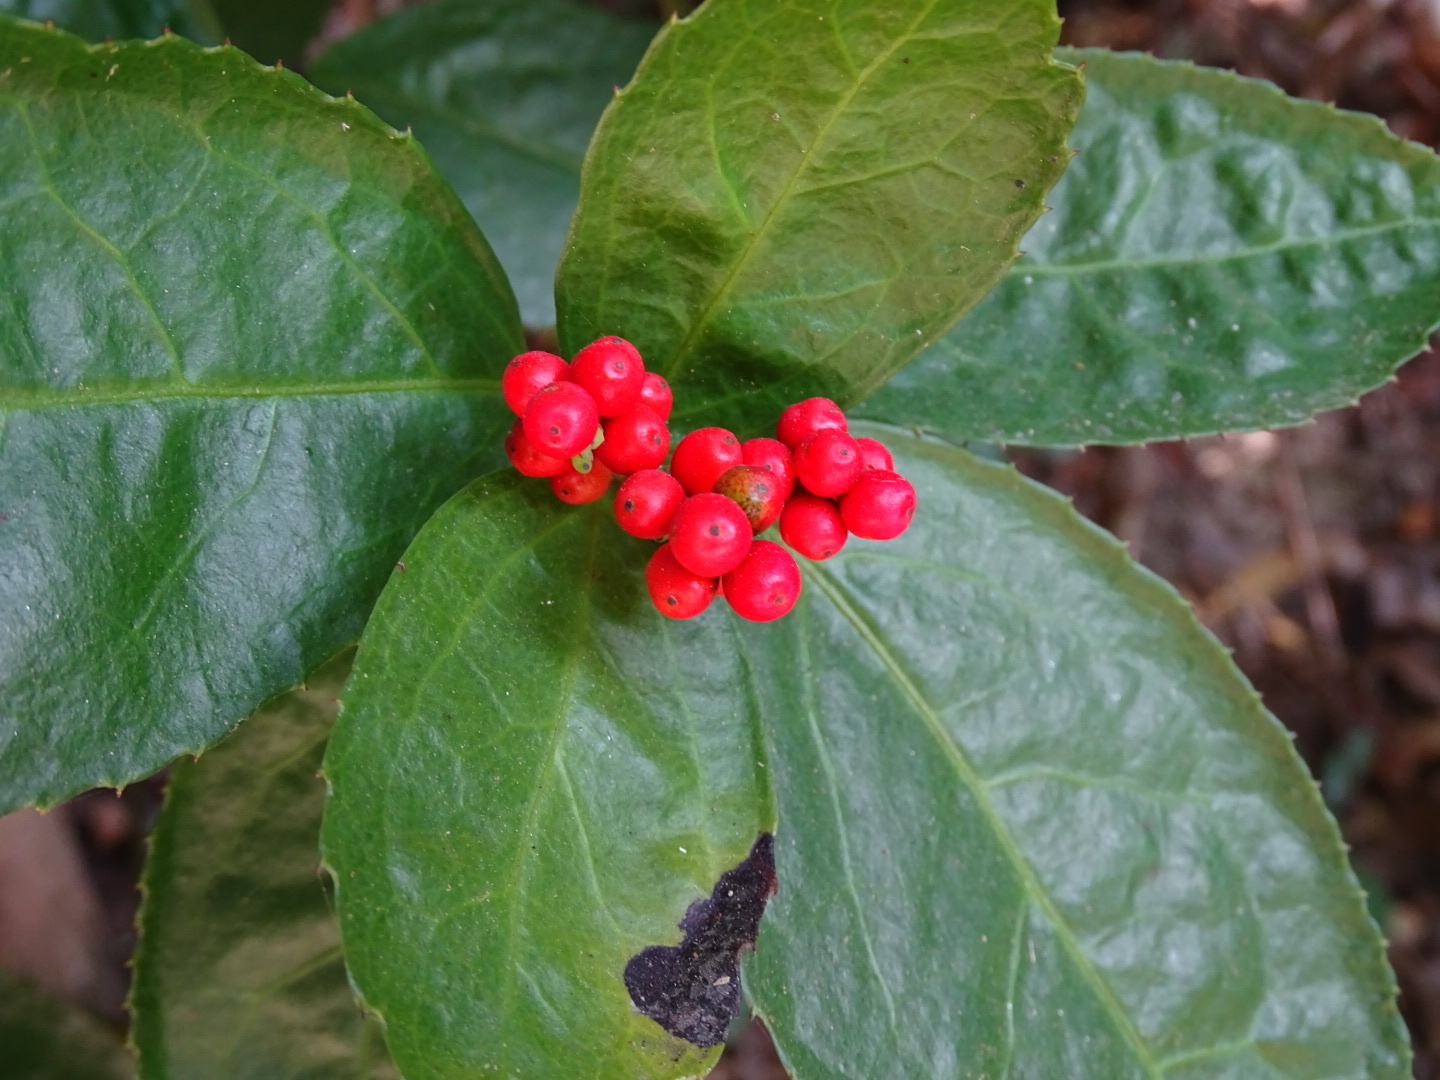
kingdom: Plantae
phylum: Tracheophyta
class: Magnoliopsida
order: Chloranthales
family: Chloranthaceae
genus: Sarcandra
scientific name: Sarcandra glabra
